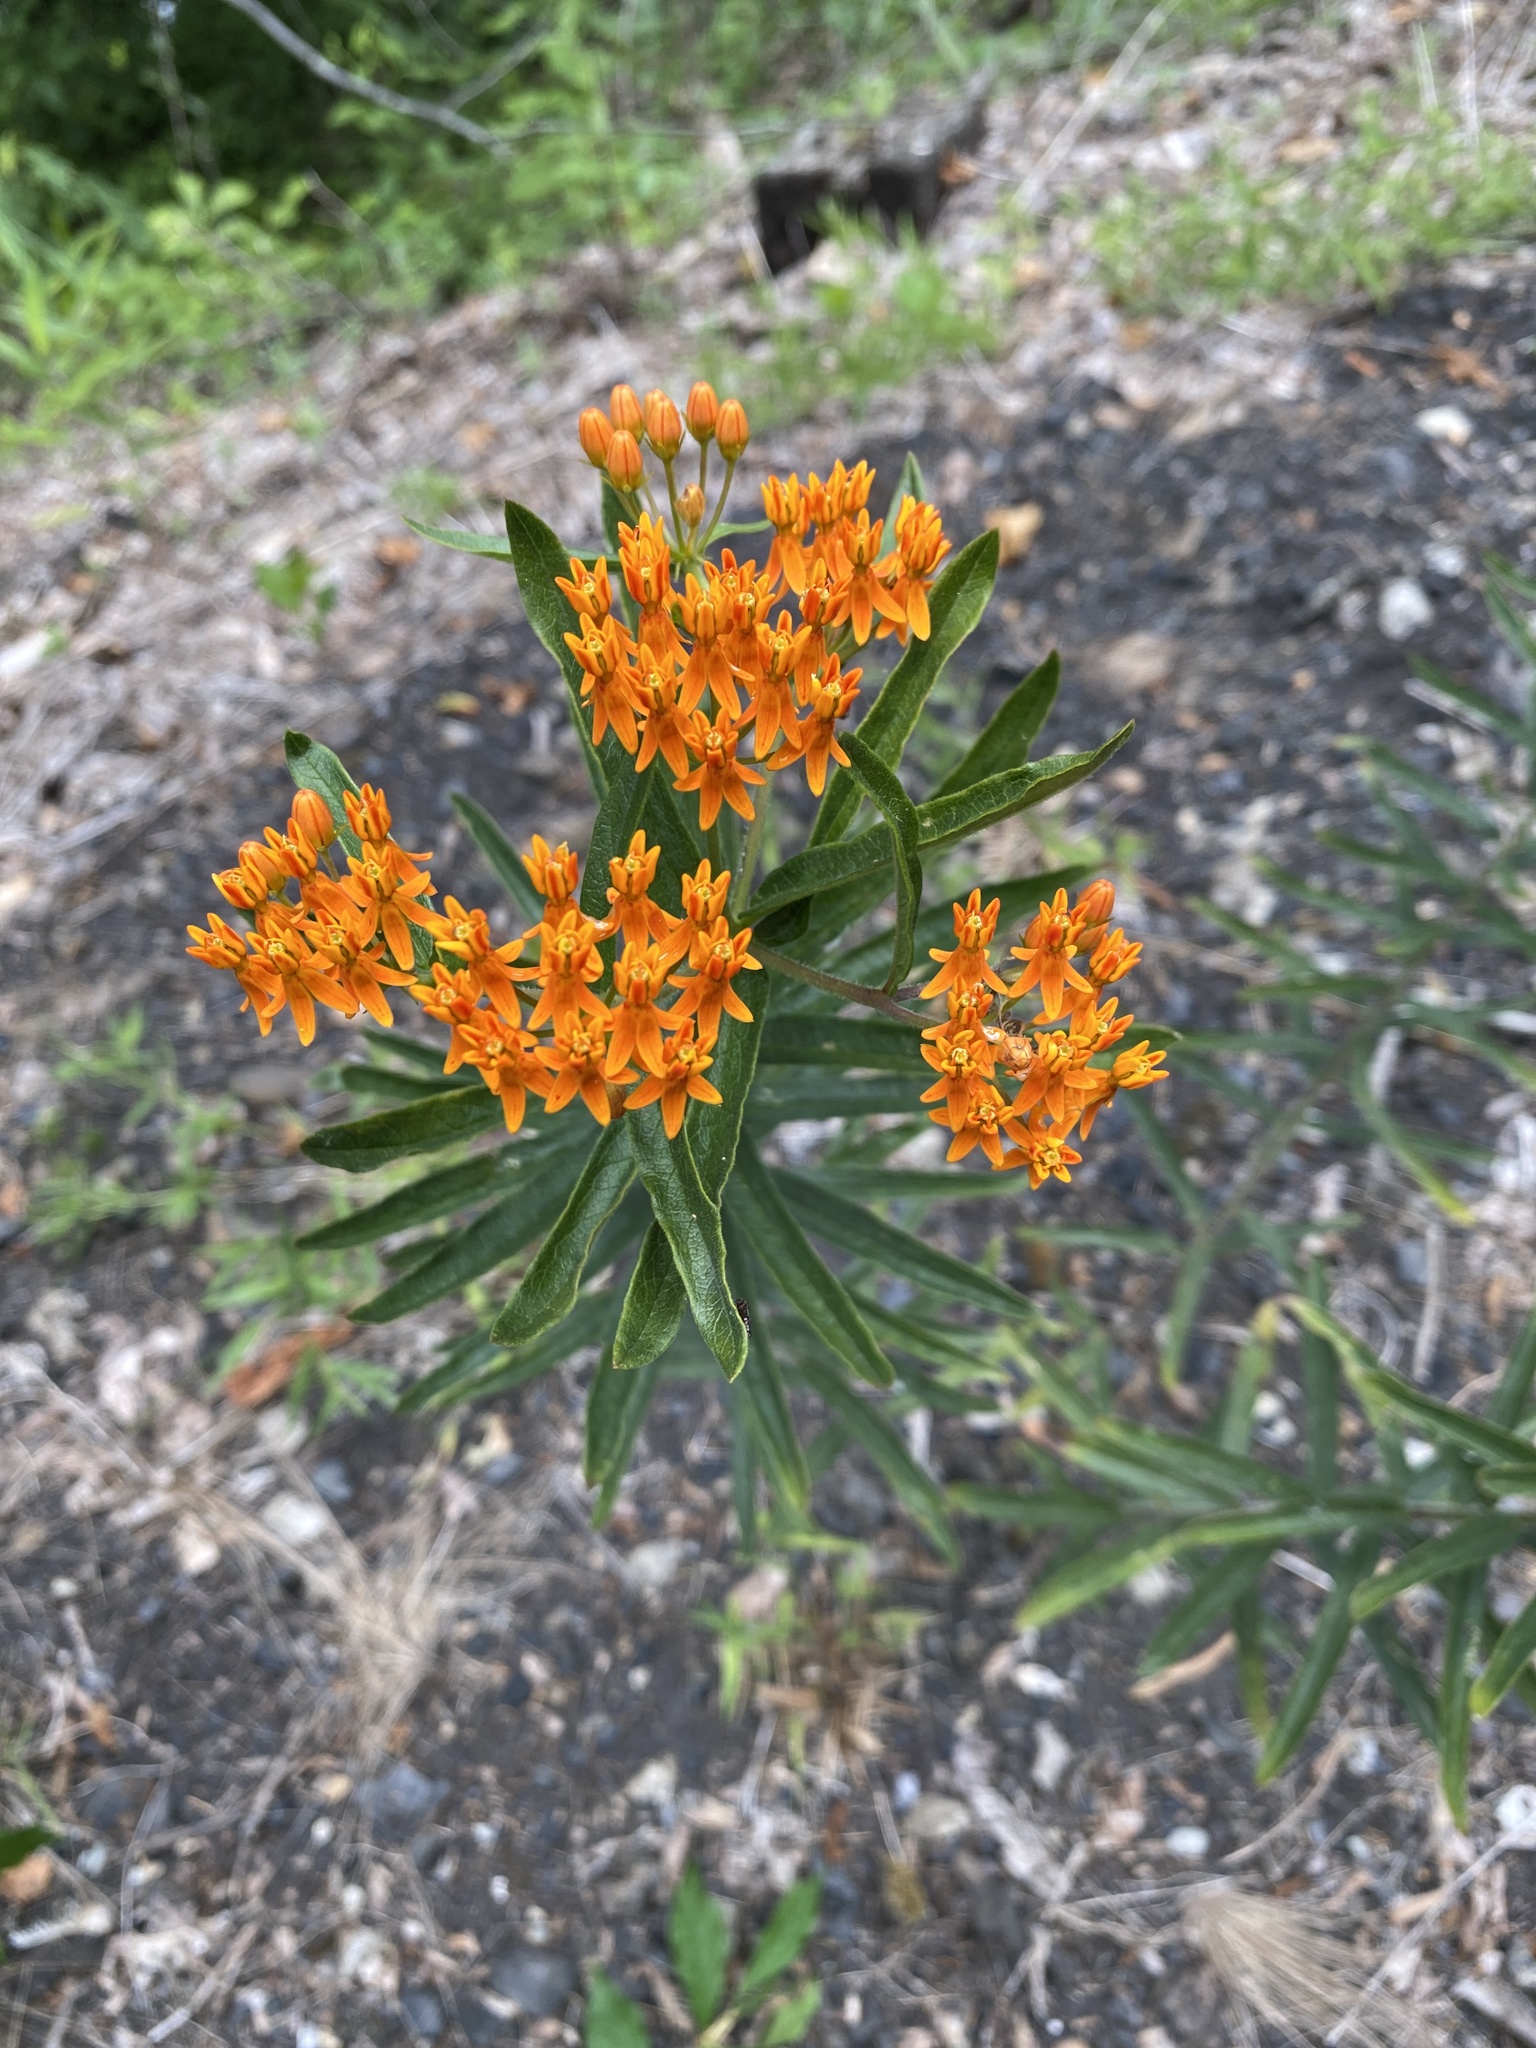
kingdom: Plantae
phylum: Tracheophyta
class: Magnoliopsida
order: Gentianales
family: Apocynaceae
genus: Asclepias
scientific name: Asclepias tuberosa
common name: Butterfly milkweed
